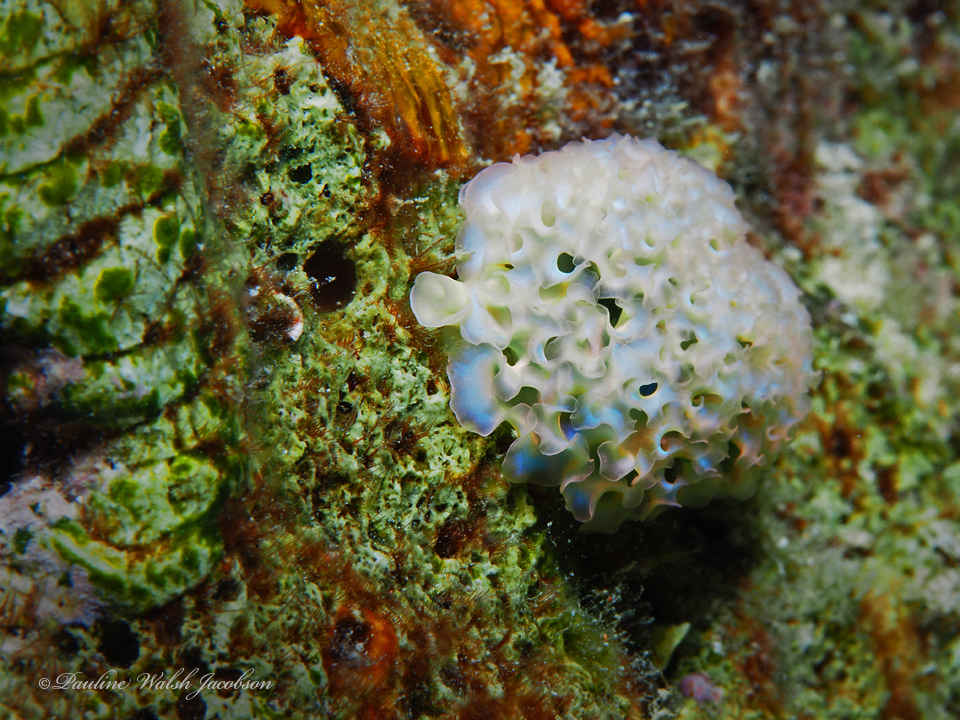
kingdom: Animalia
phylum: Mollusca
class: Gastropoda
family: Plakobranchidae
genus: Elysia
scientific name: Elysia crispata
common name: Lettuce slug
